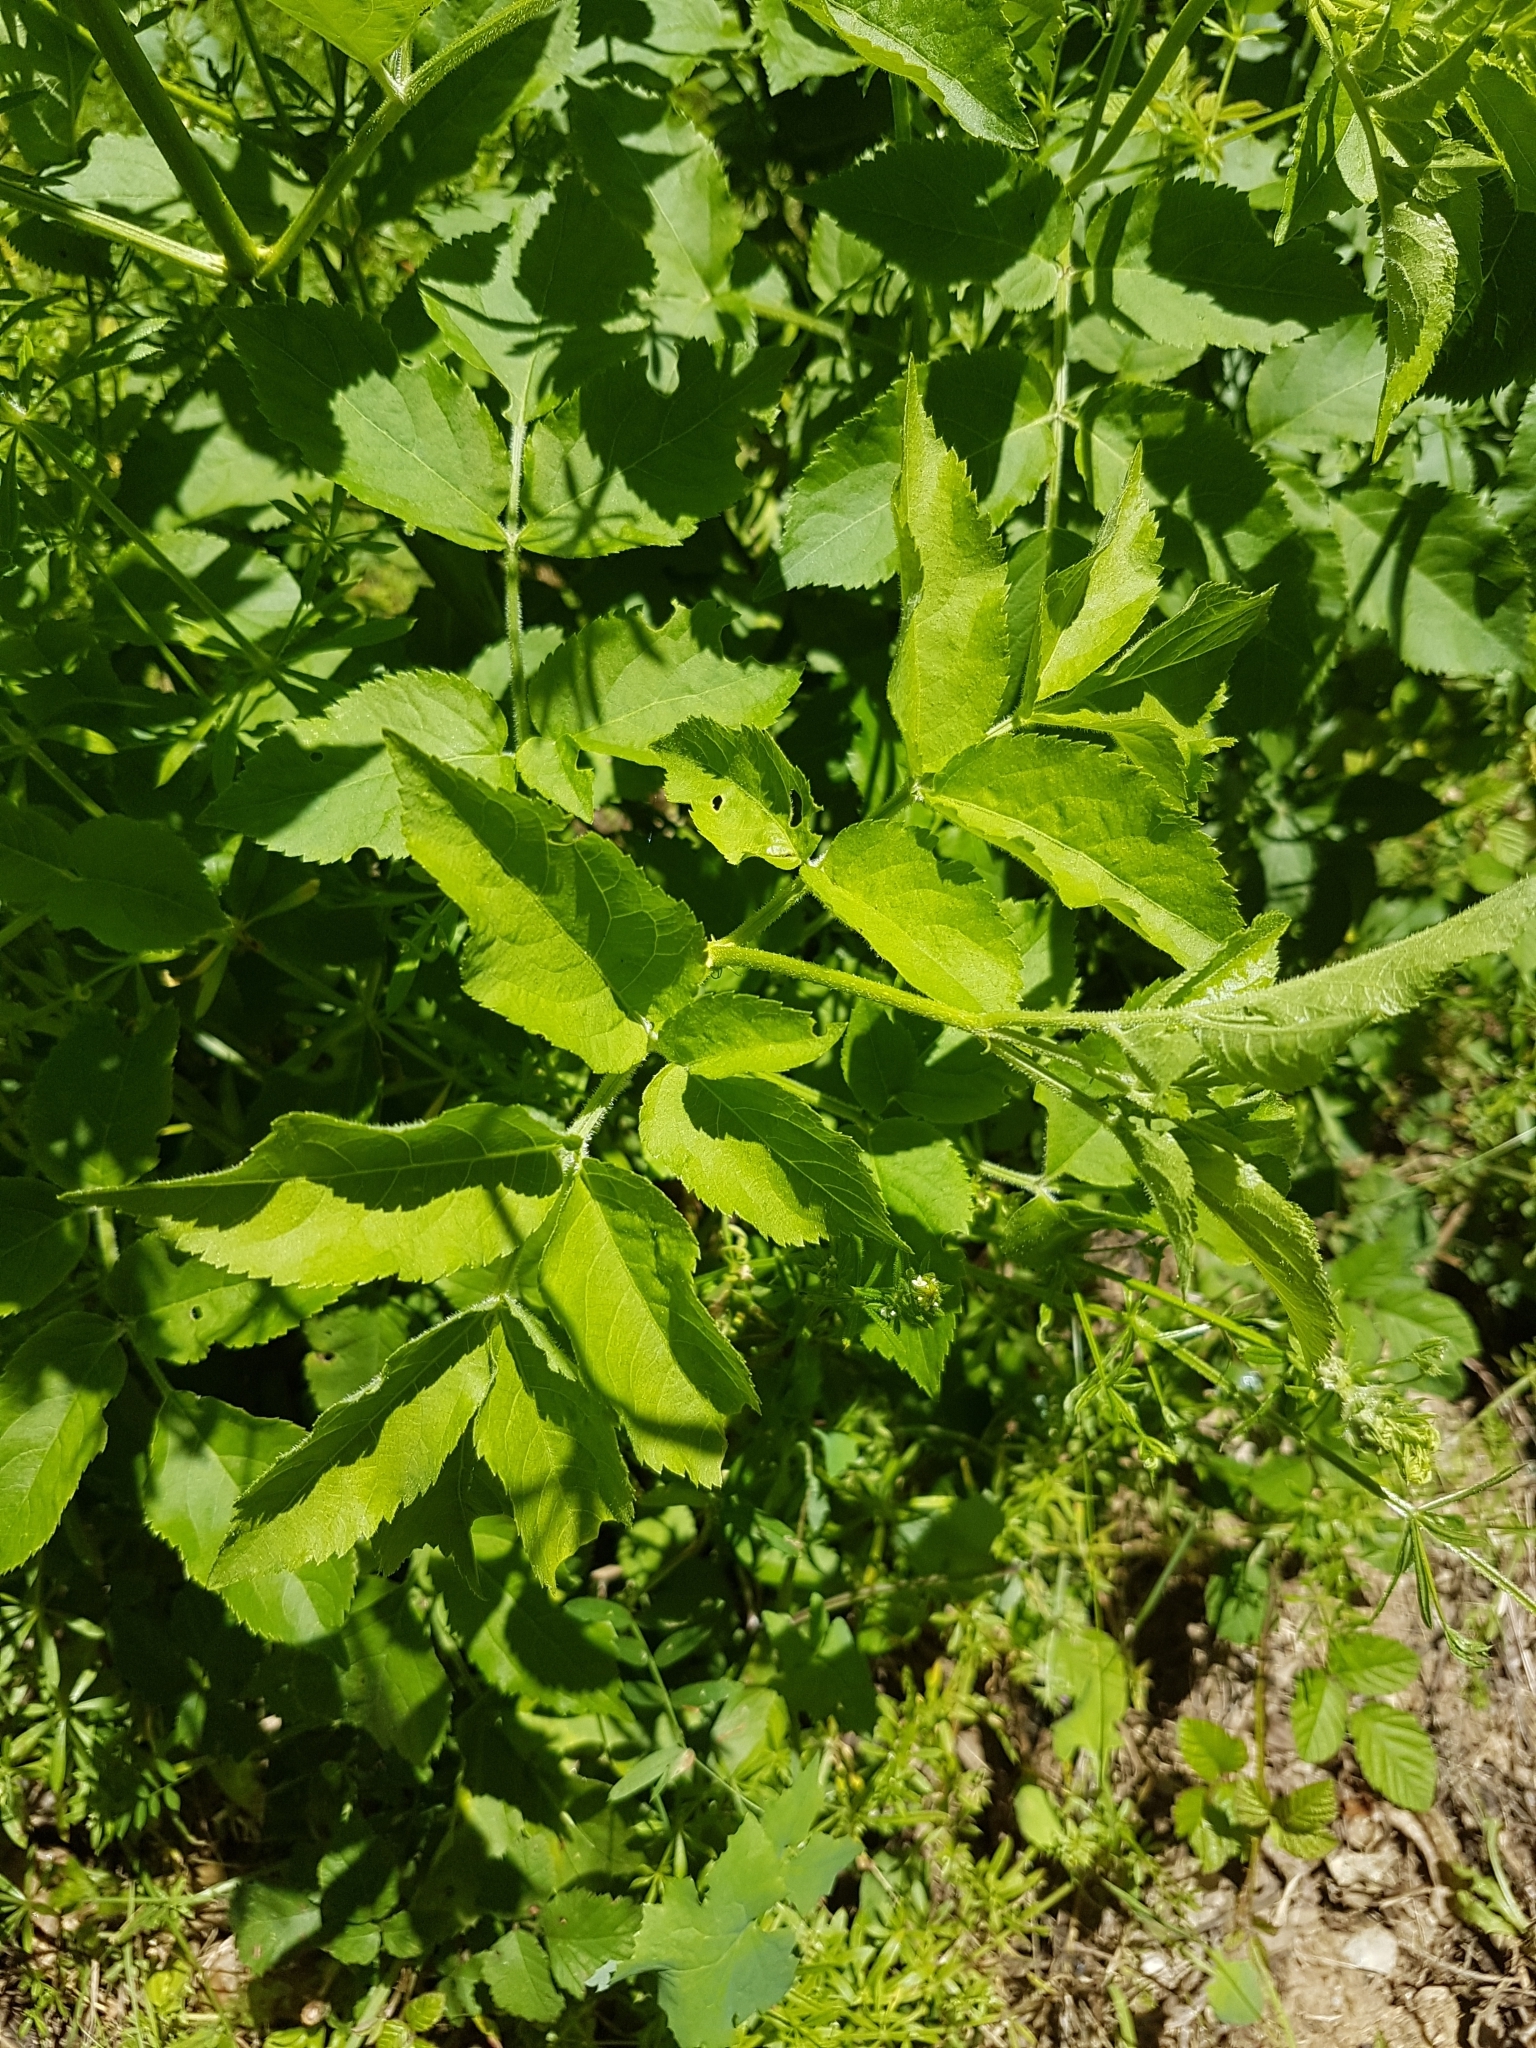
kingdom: Plantae
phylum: Tracheophyta
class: Magnoliopsida
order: Dipsacales
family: Viburnaceae
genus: Sambucus
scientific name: Sambucus nigra
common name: Elder
